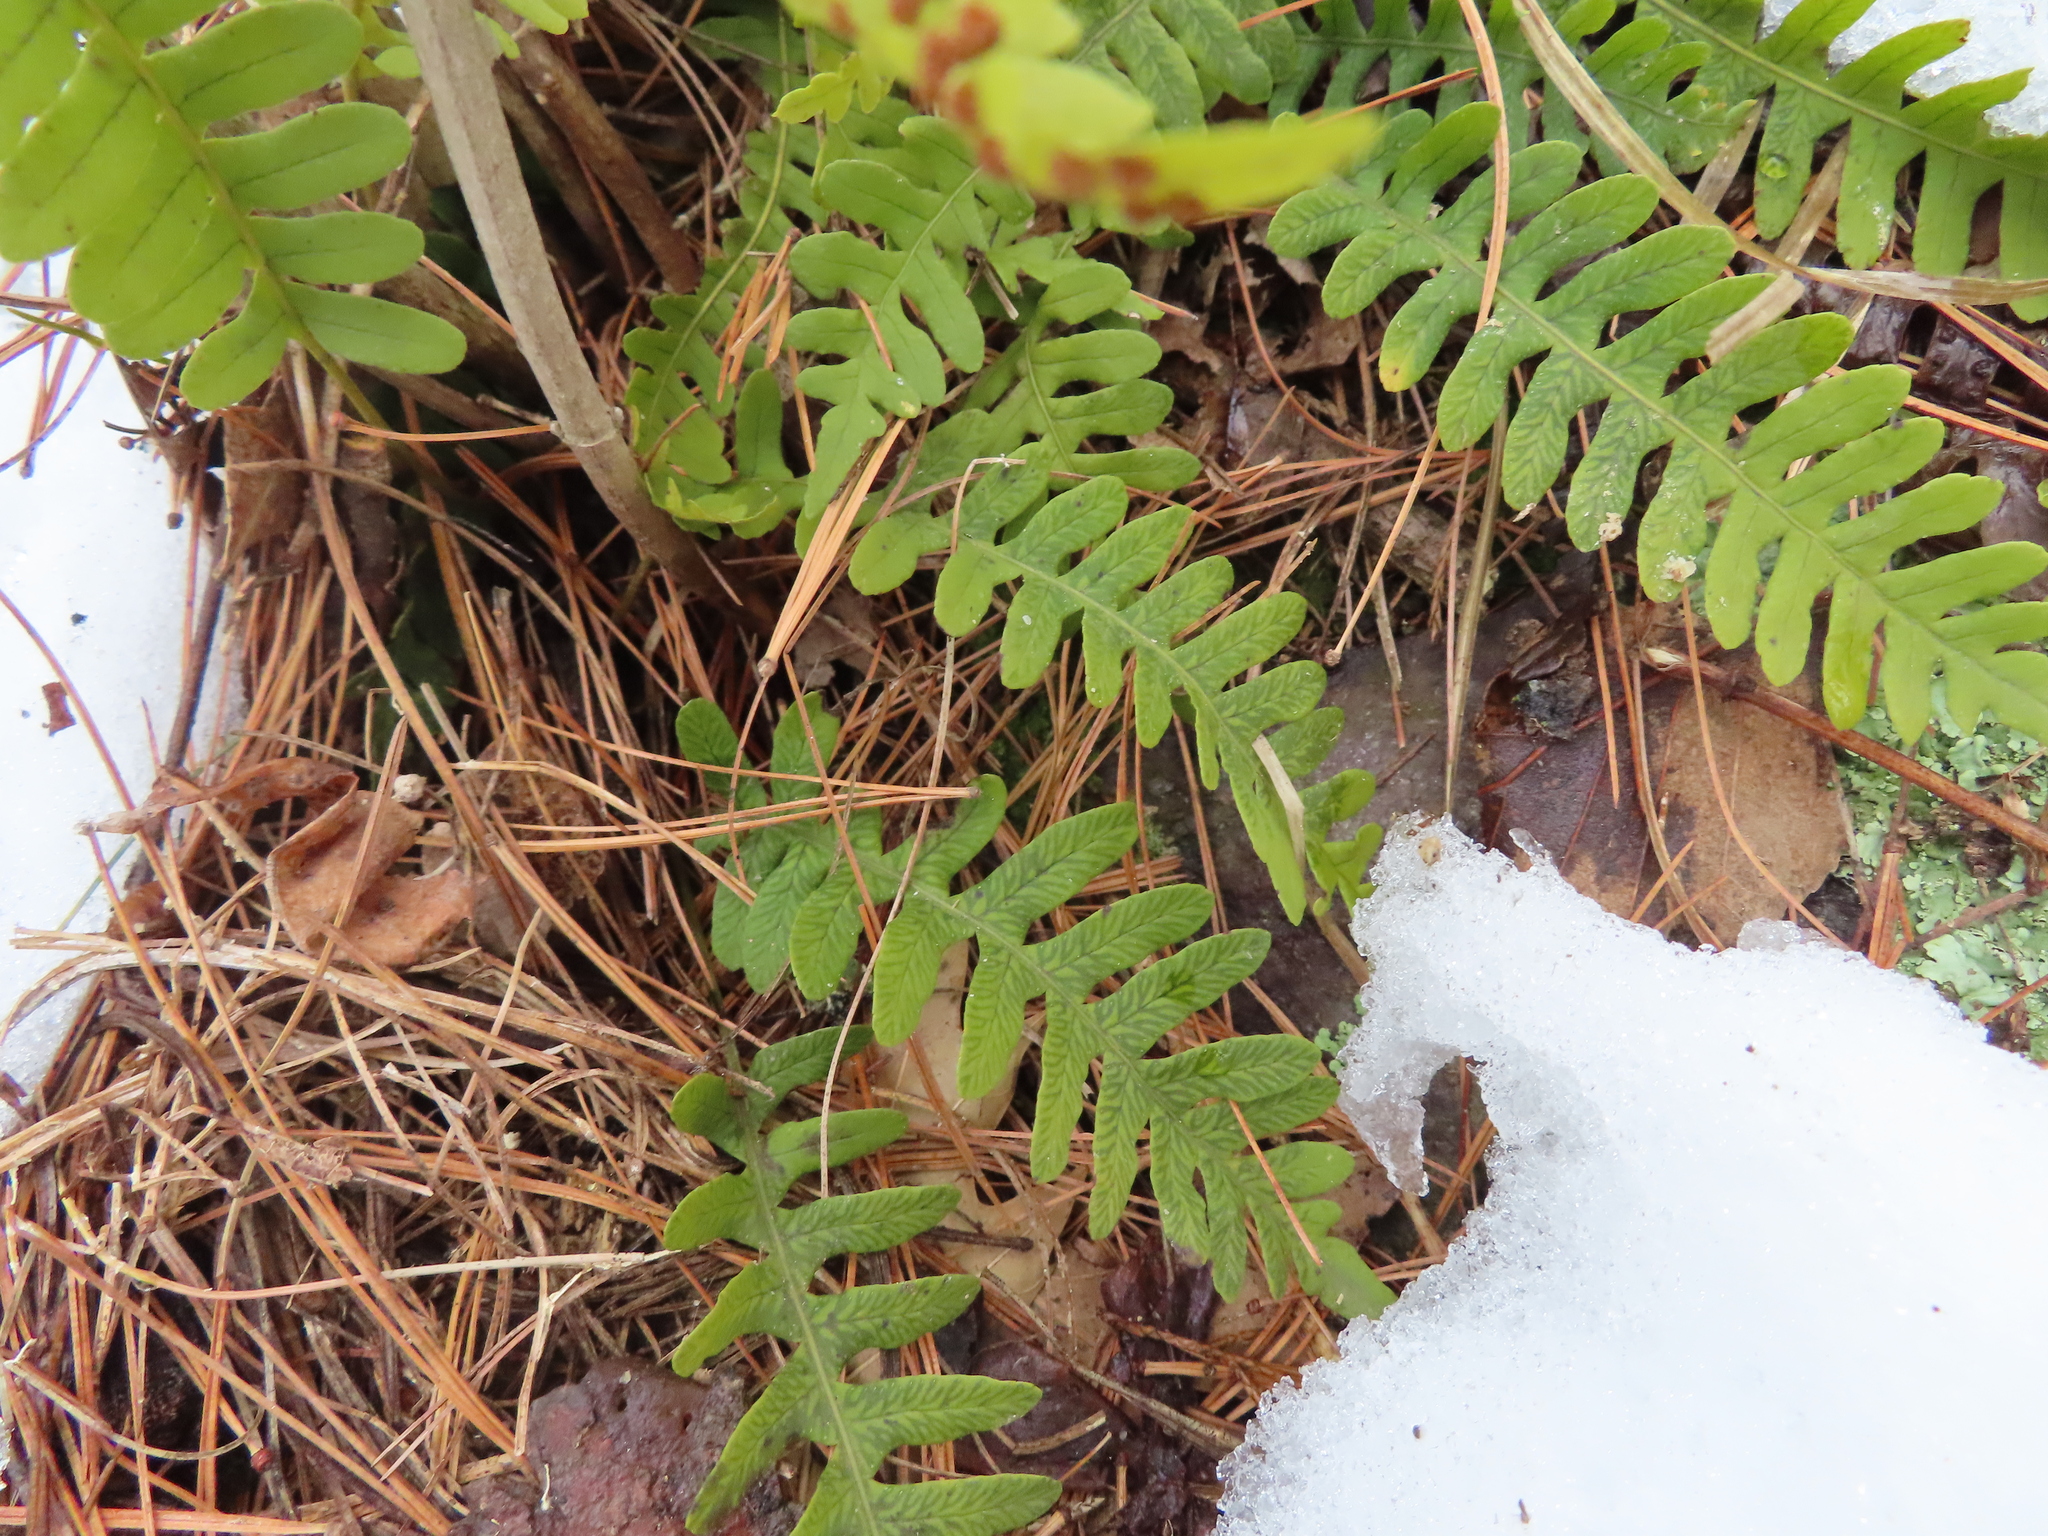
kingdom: Plantae
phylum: Tracheophyta
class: Polypodiopsida
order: Polypodiales
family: Polypodiaceae
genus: Polypodium
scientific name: Polypodium virginianum
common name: American wall fern
